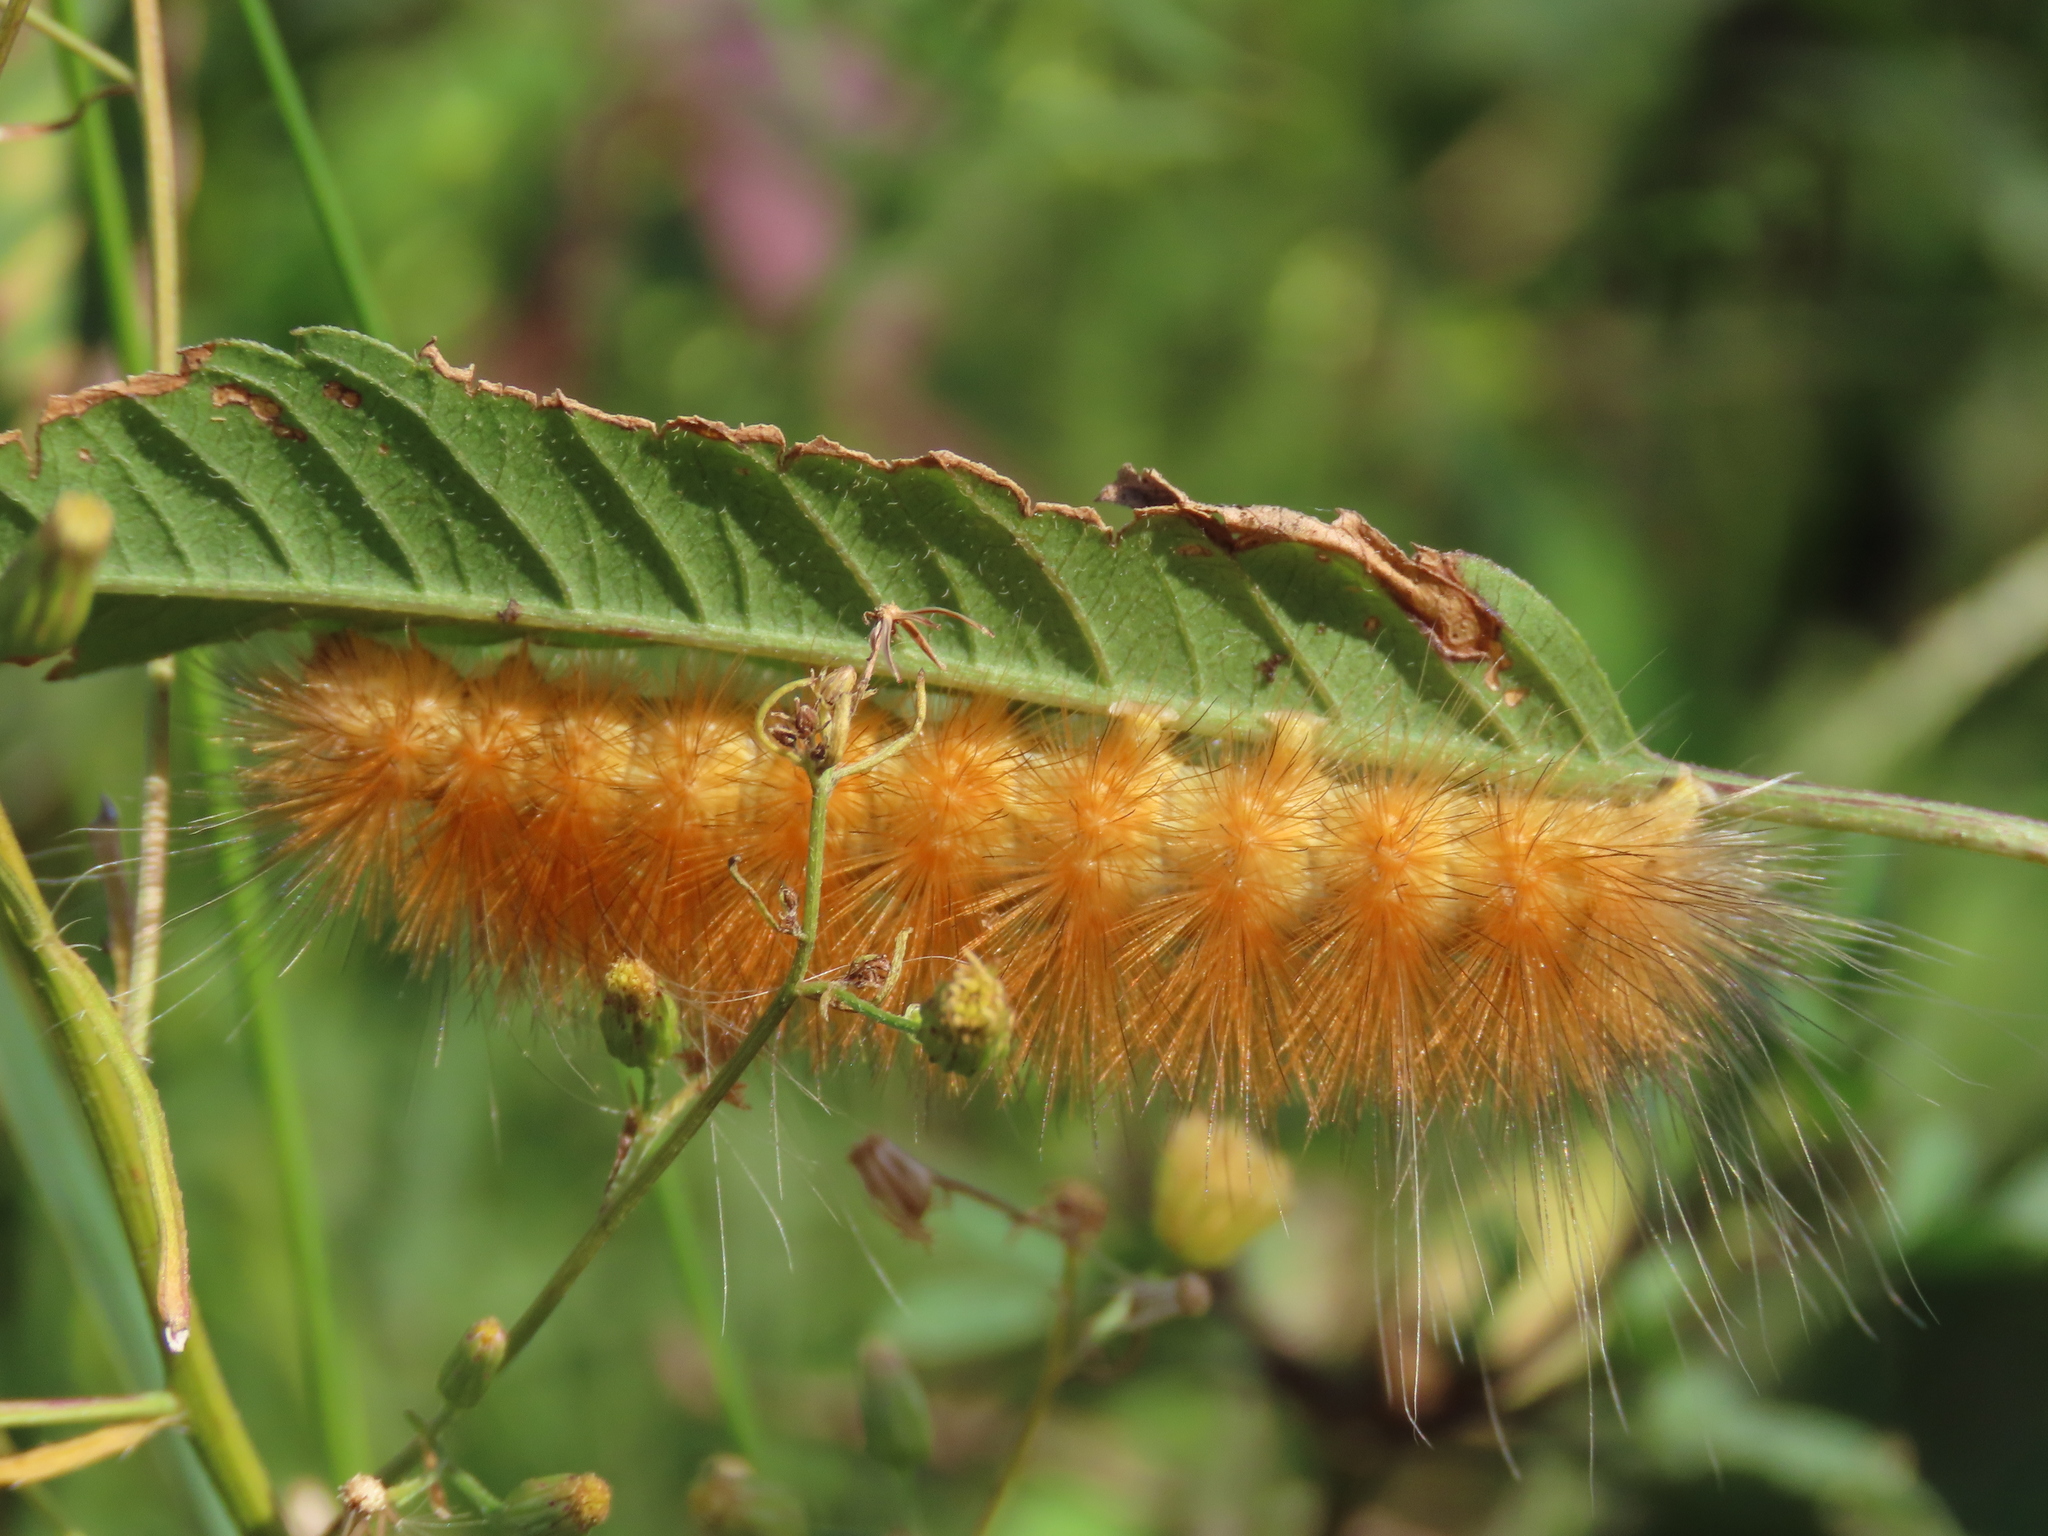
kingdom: Animalia
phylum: Arthropoda
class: Insecta
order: Lepidoptera
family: Erebidae
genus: Spilosoma
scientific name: Spilosoma virginica
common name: Virginia tiger moth
